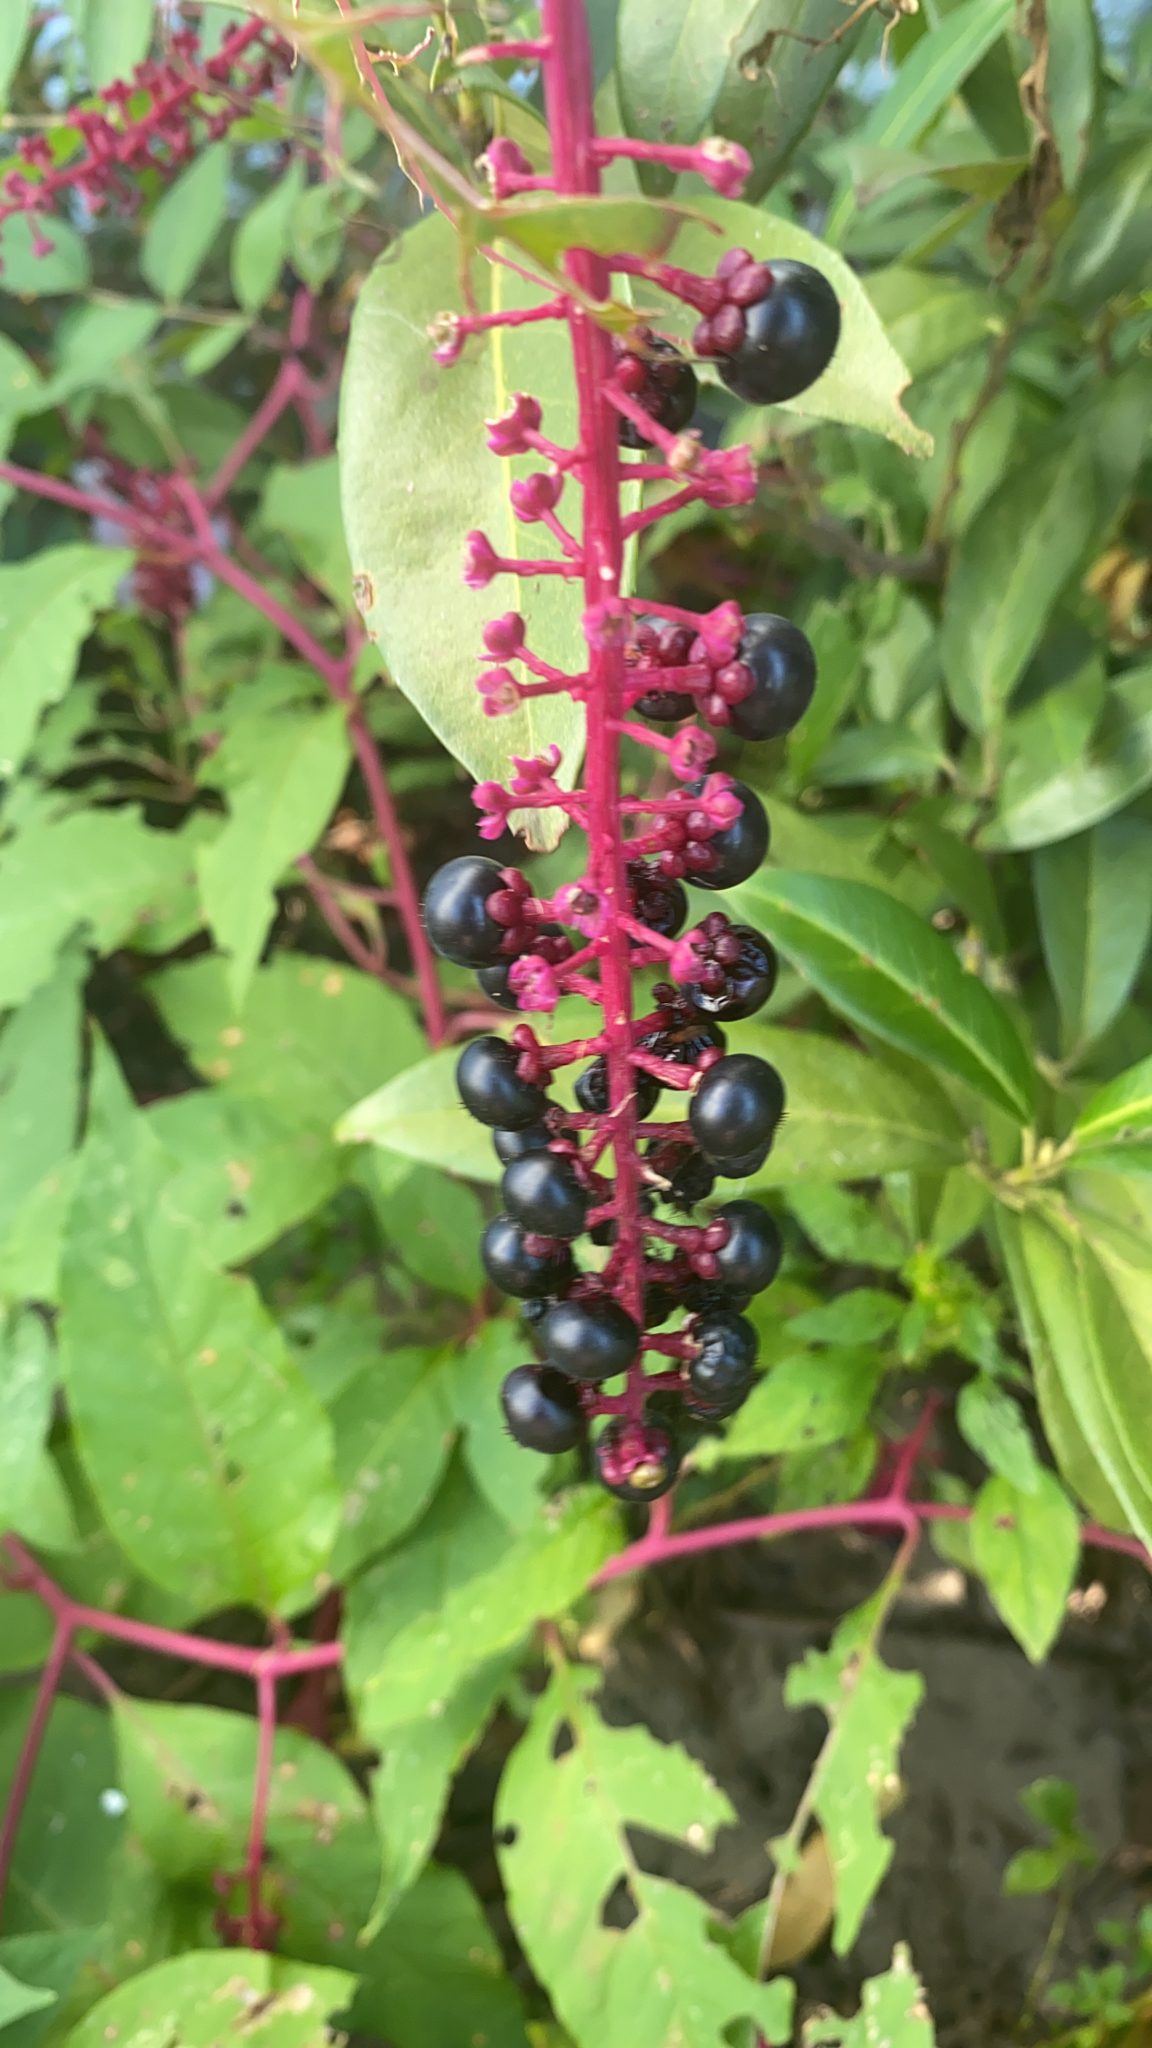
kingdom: Plantae
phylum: Tracheophyta
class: Magnoliopsida
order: Caryophyllales
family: Phytolaccaceae
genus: Phytolacca
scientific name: Phytolacca americana
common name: American pokeweed
